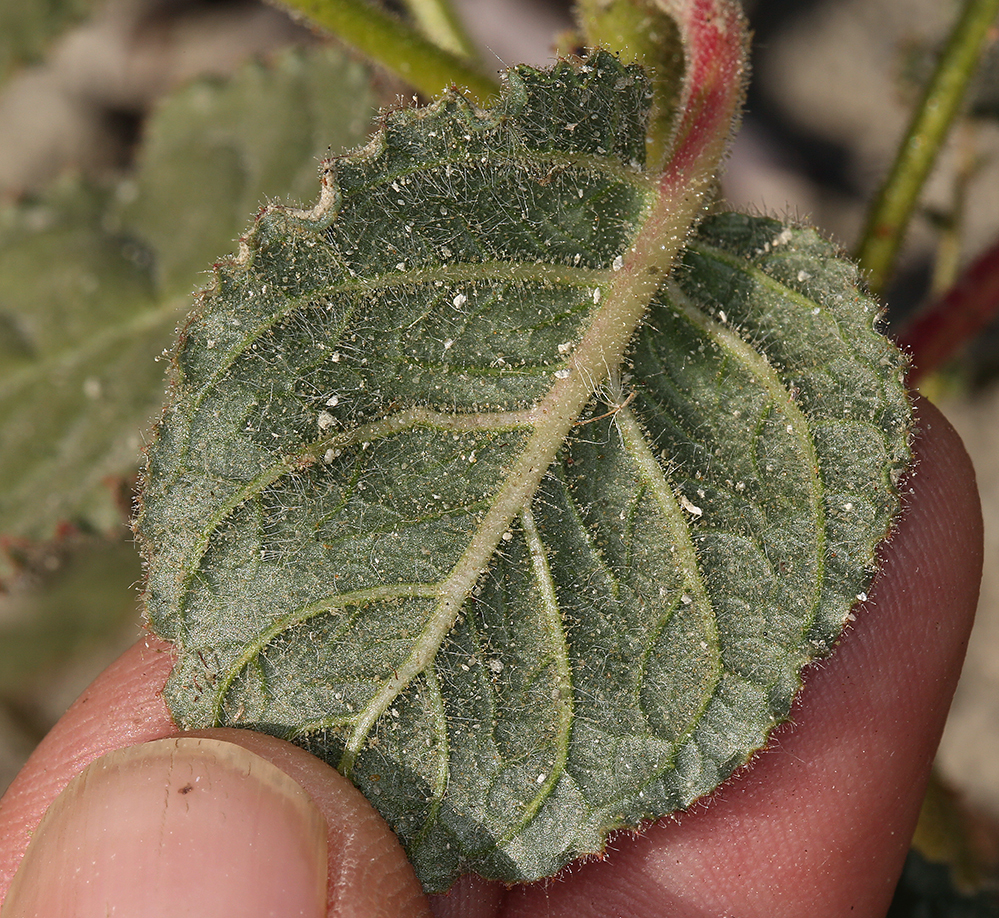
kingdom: Plantae
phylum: Tracheophyta
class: Magnoliopsida
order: Myrtales
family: Onagraceae
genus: Chylismia
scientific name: Chylismia heterochroma
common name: Shockley's evening primrose
